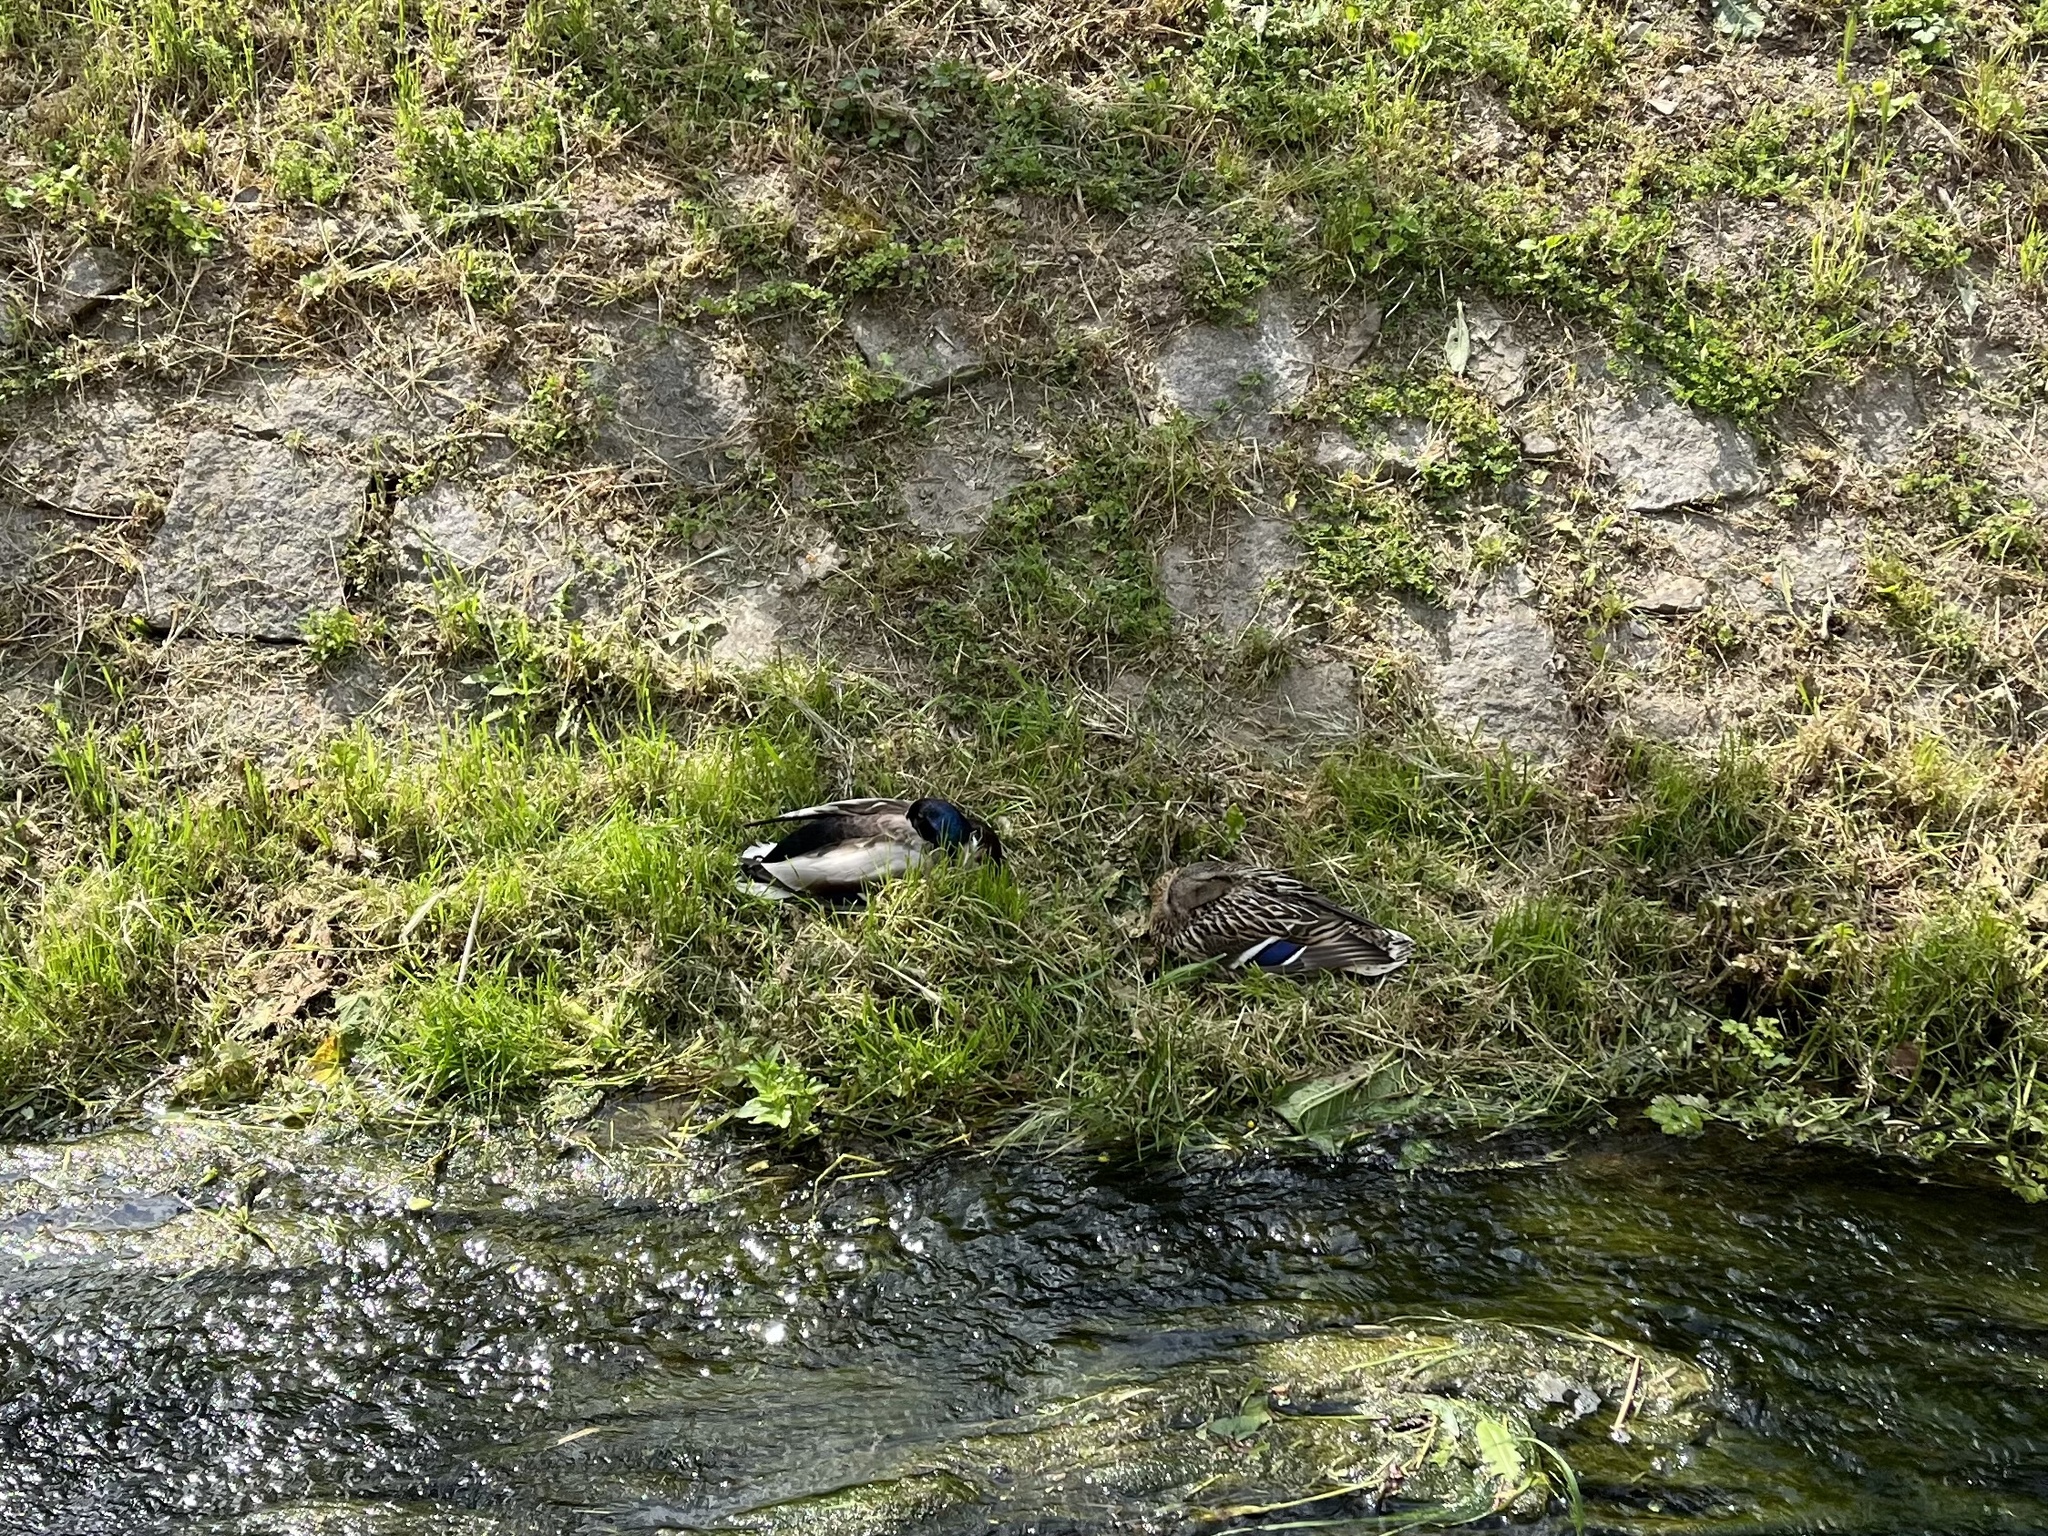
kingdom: Animalia
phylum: Chordata
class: Aves
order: Anseriformes
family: Anatidae
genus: Anas
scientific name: Anas platyrhynchos
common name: Mallard
